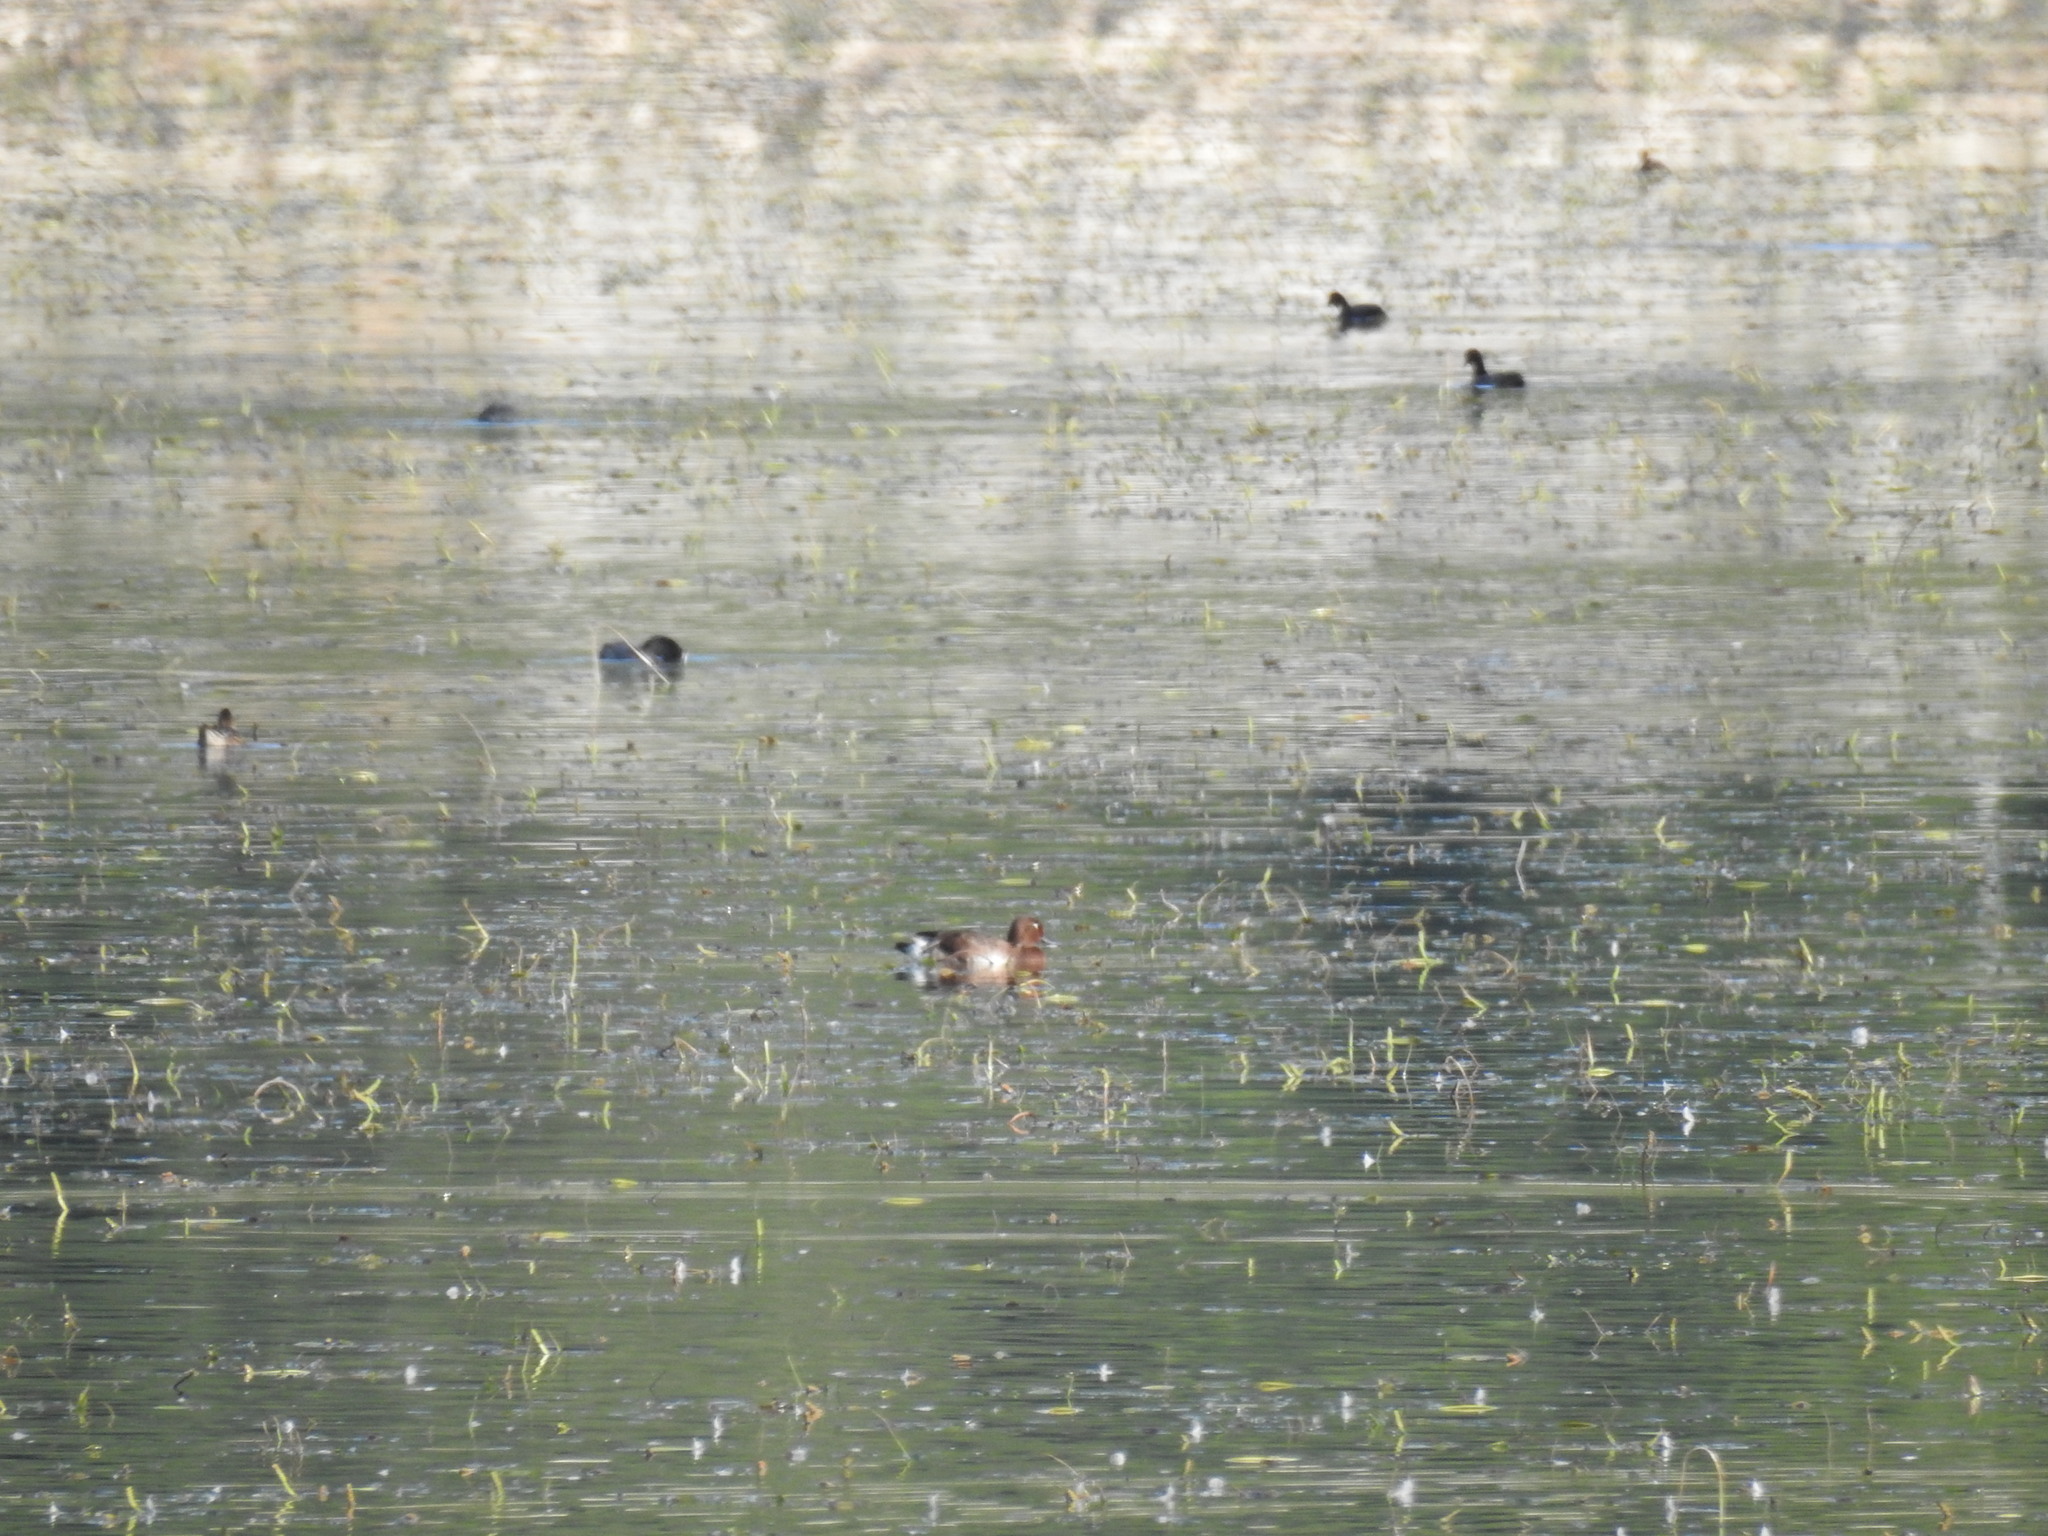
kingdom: Animalia
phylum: Chordata
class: Aves
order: Anseriformes
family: Anatidae
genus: Aythya
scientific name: Aythya nyroca
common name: Ferruginous duck
